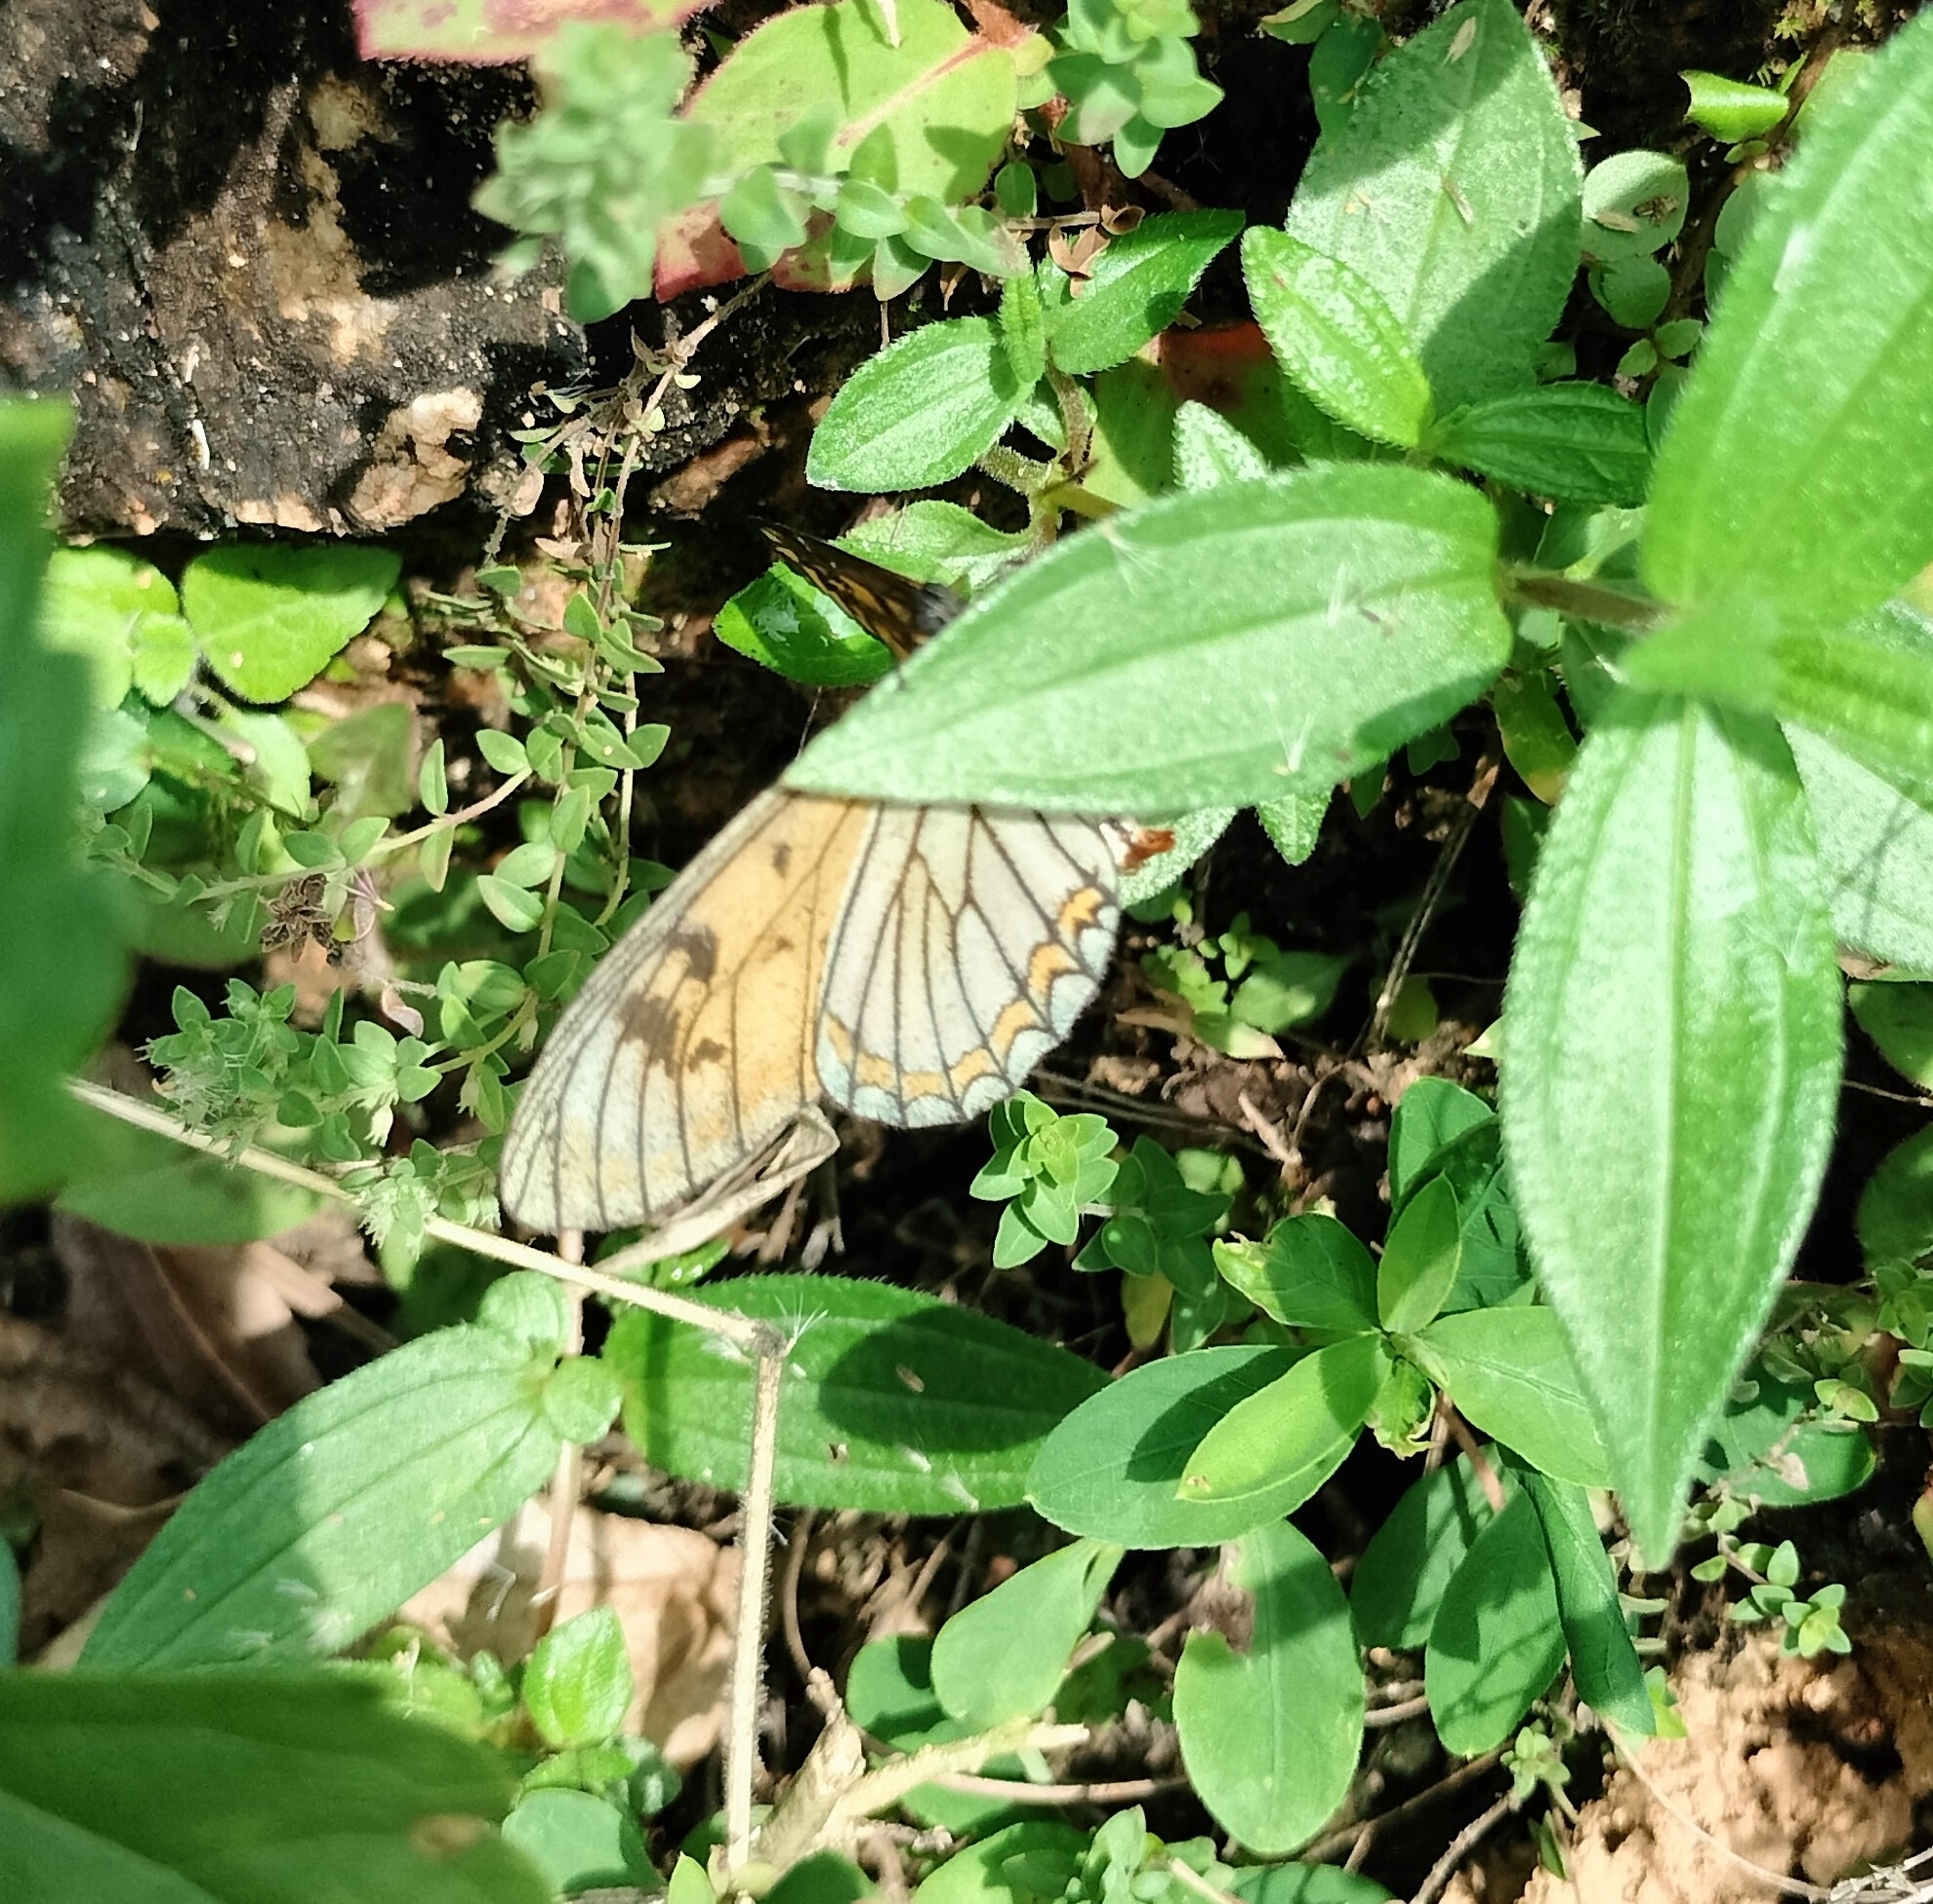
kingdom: Animalia
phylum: Arthropoda
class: Insecta
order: Lepidoptera
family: Nymphalidae
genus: Acraea
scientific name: Acraea Telchinia issoria
